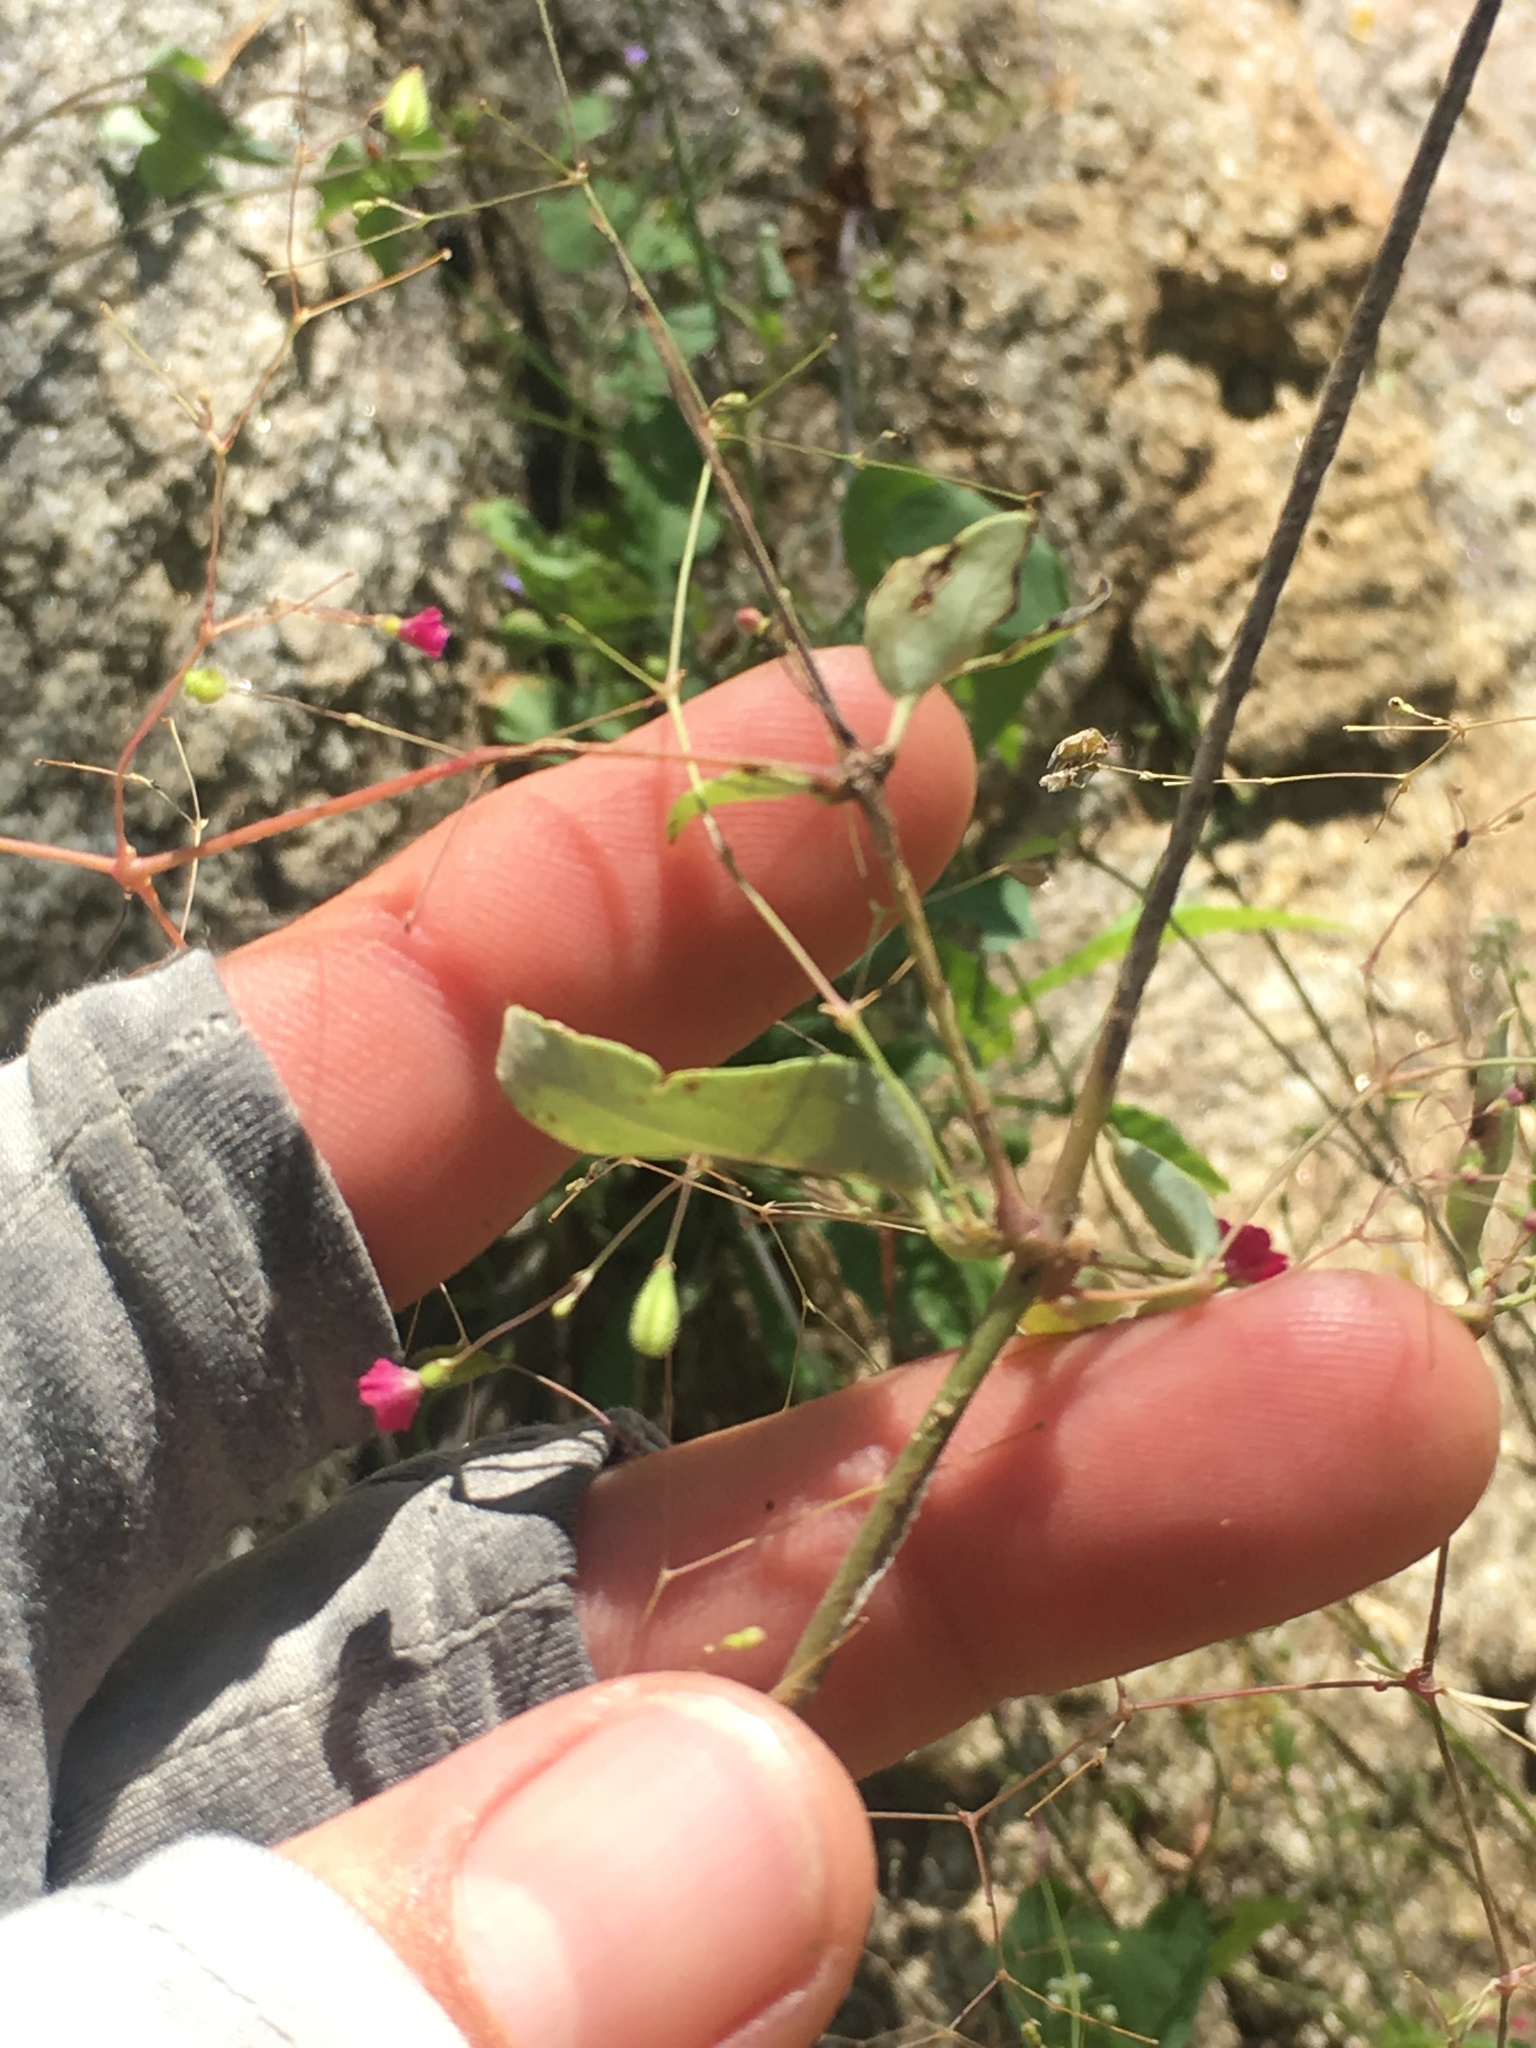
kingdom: Plantae
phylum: Tracheophyta
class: Magnoliopsida
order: Caryophyllales
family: Nyctaginaceae
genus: Boerhavia
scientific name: Boerhavia gracillima
